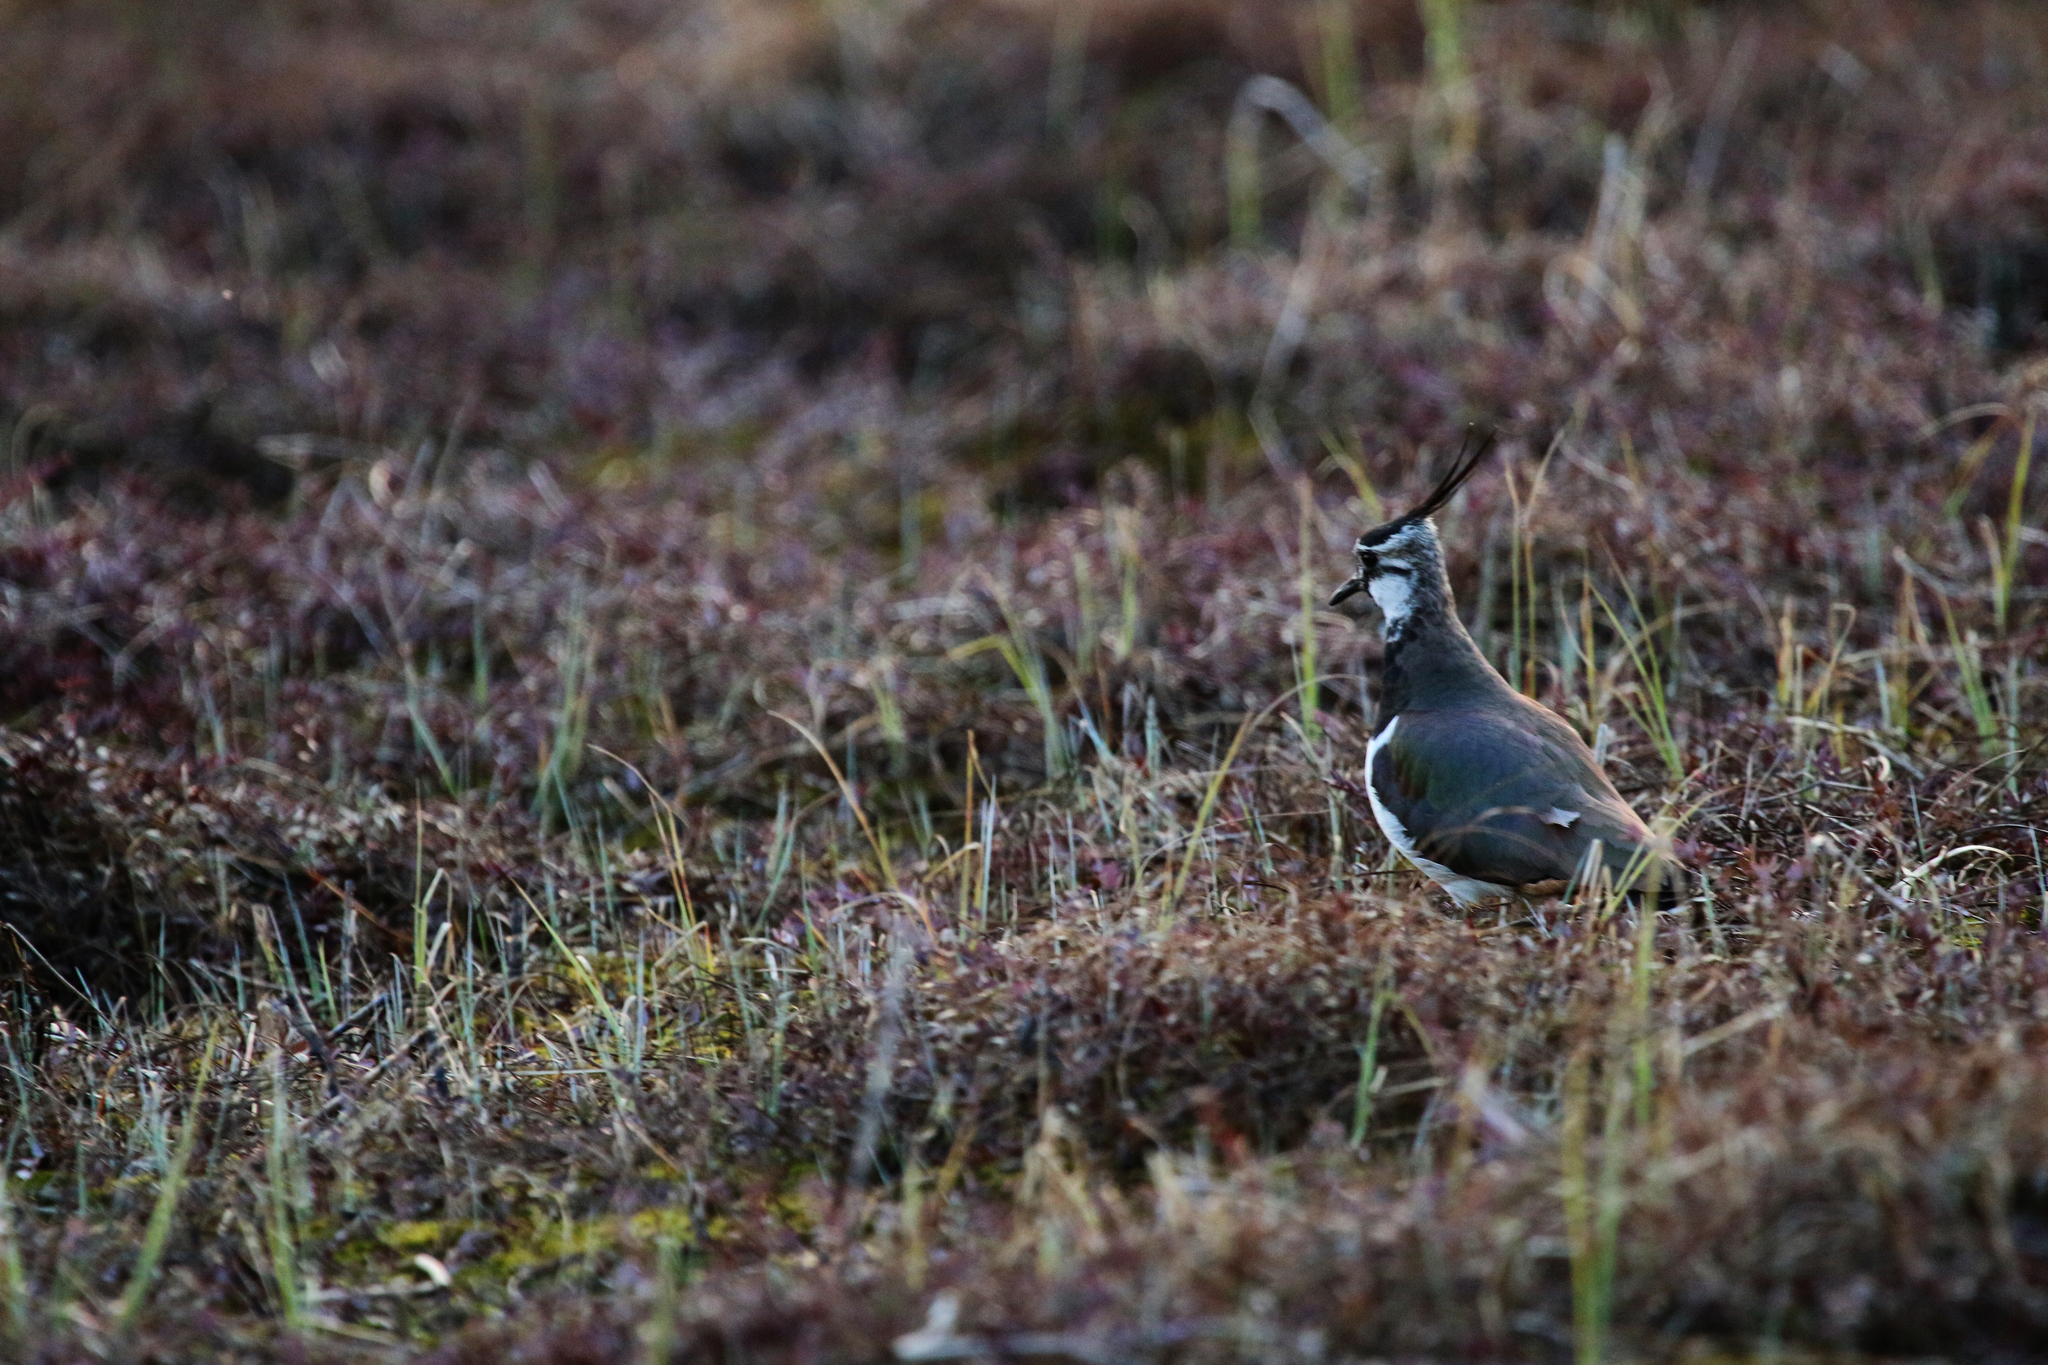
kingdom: Animalia
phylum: Chordata
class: Aves
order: Charadriiformes
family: Charadriidae
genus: Vanellus
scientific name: Vanellus vanellus
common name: Northern lapwing
